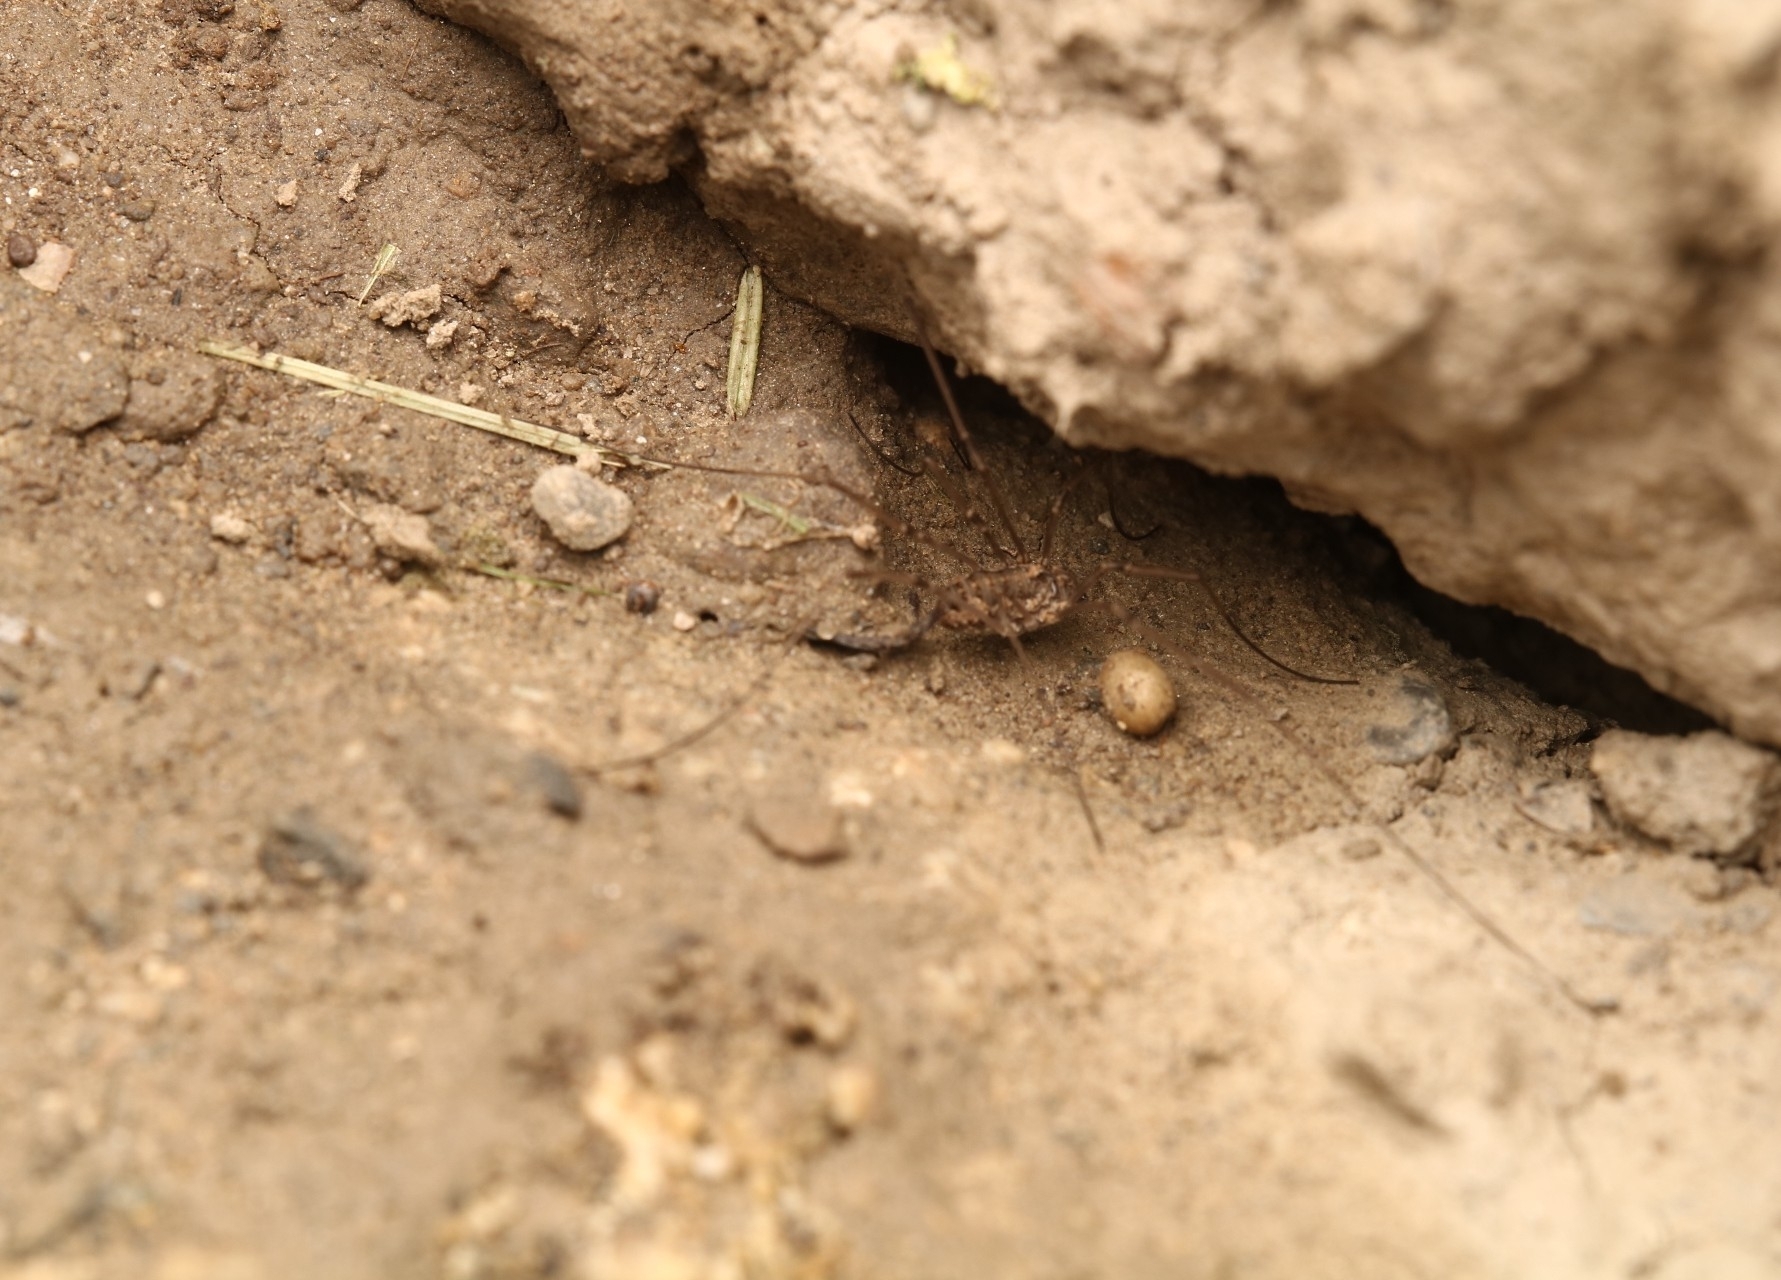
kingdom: Animalia
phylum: Arthropoda
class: Arachnida
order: Opiliones
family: Phalangiidae
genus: Phalangium
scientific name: Phalangium opilio
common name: Daddy longleg
